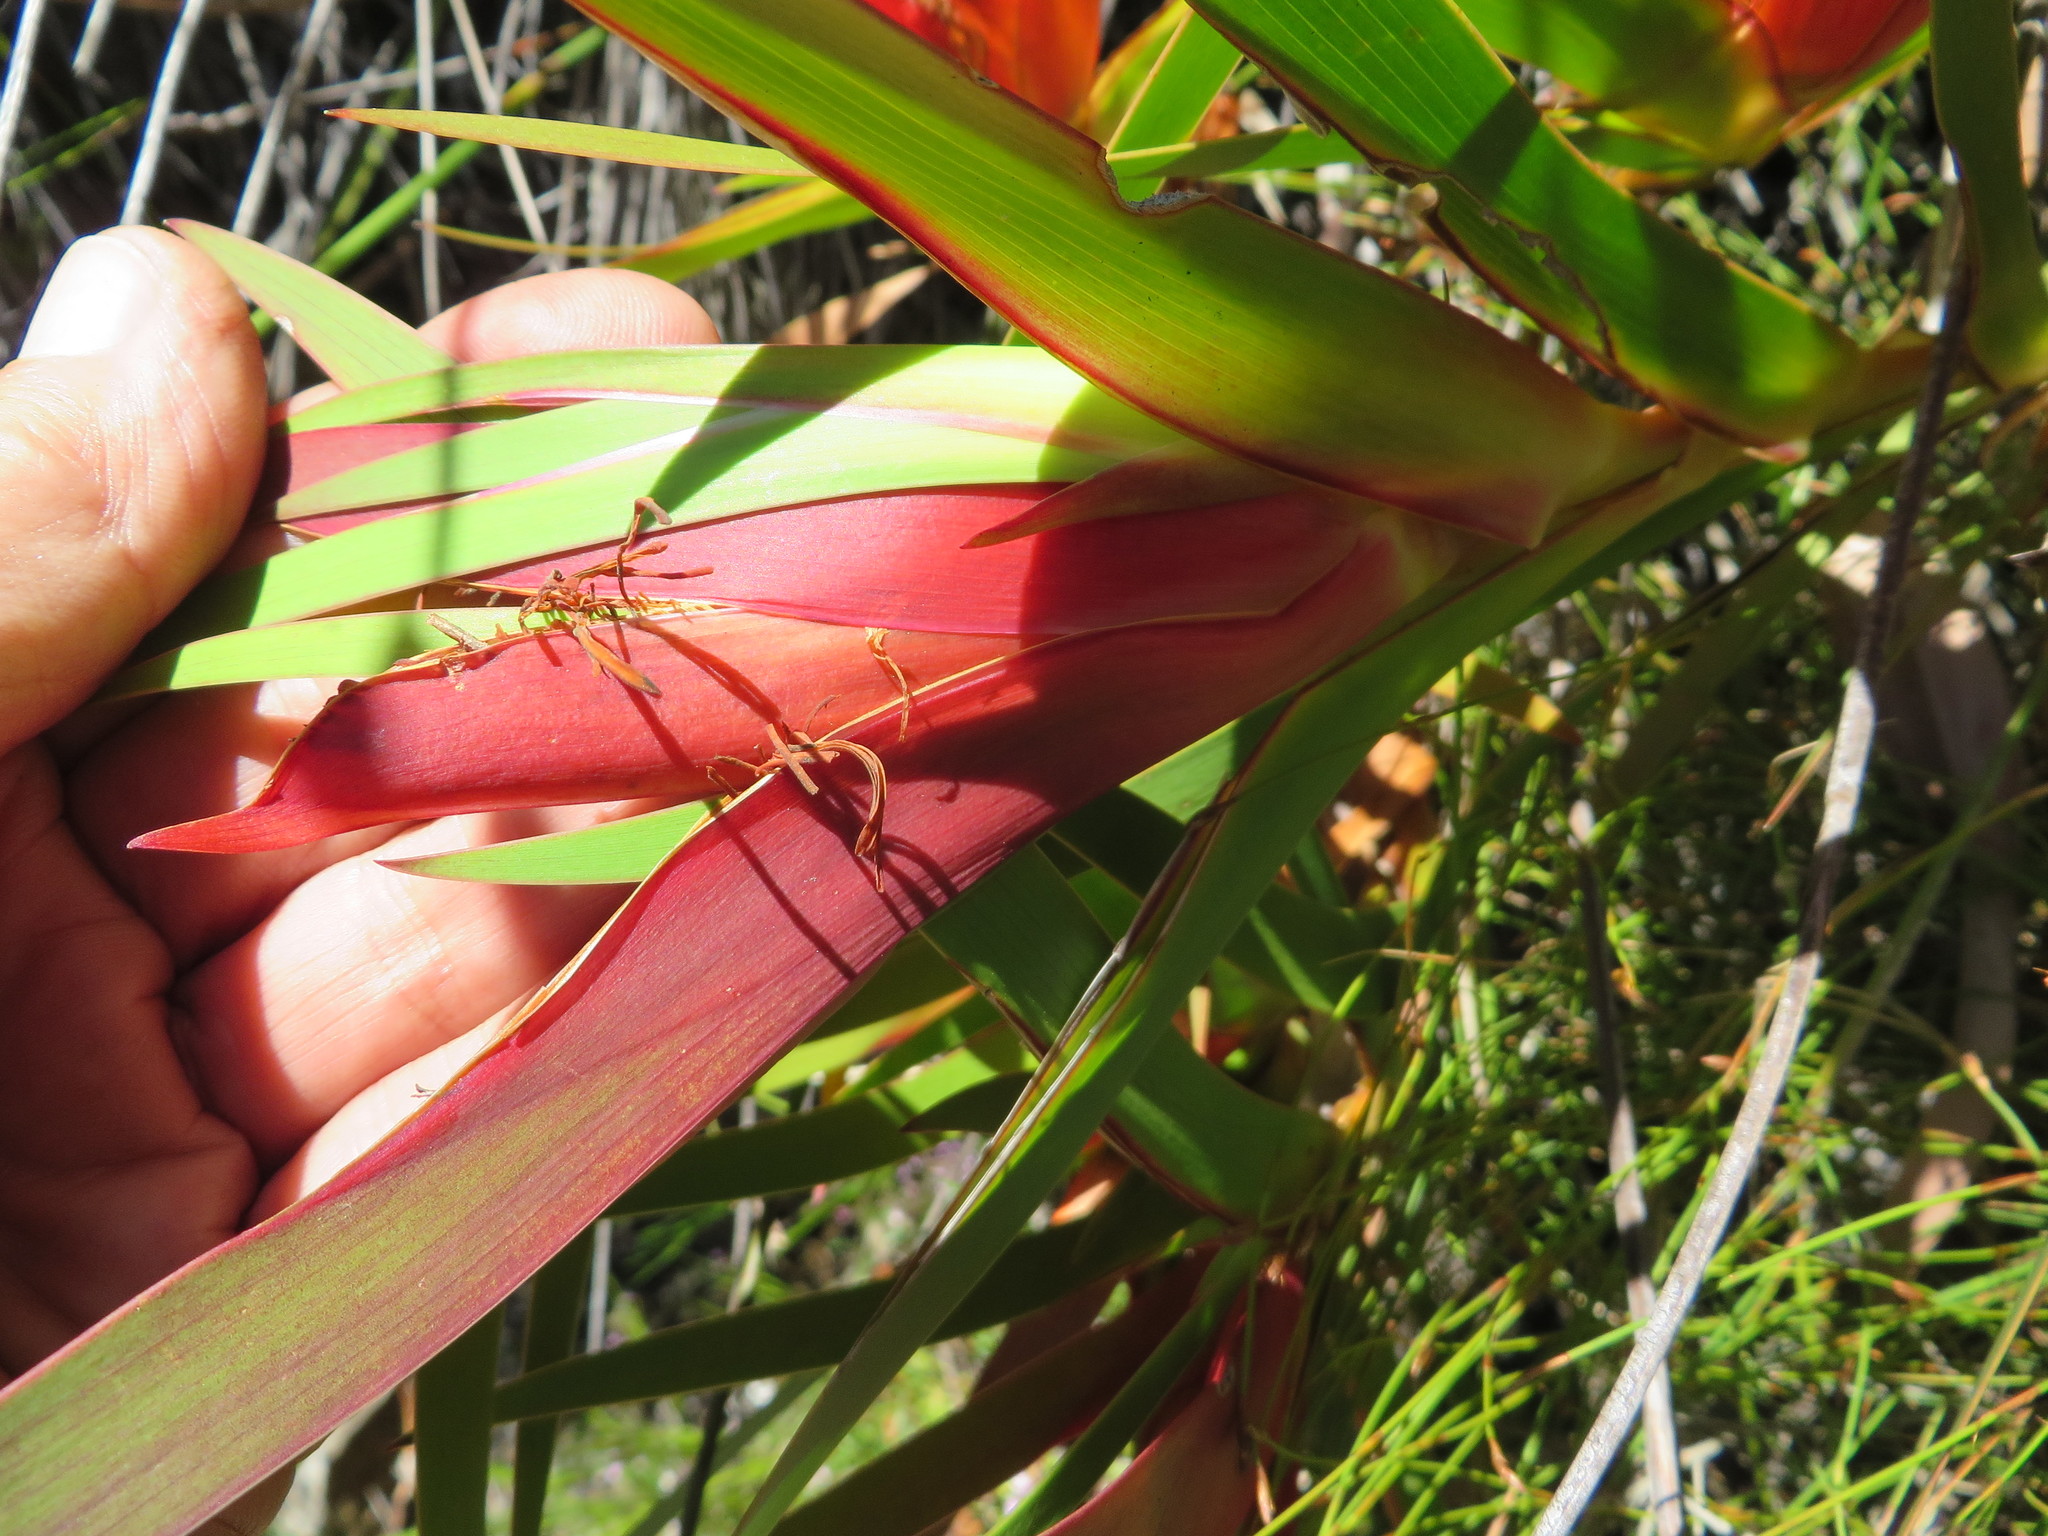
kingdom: Plantae
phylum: Tracheophyta
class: Liliopsida
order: Asparagales
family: Iridaceae
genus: Klattia
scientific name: Klattia stokoei
